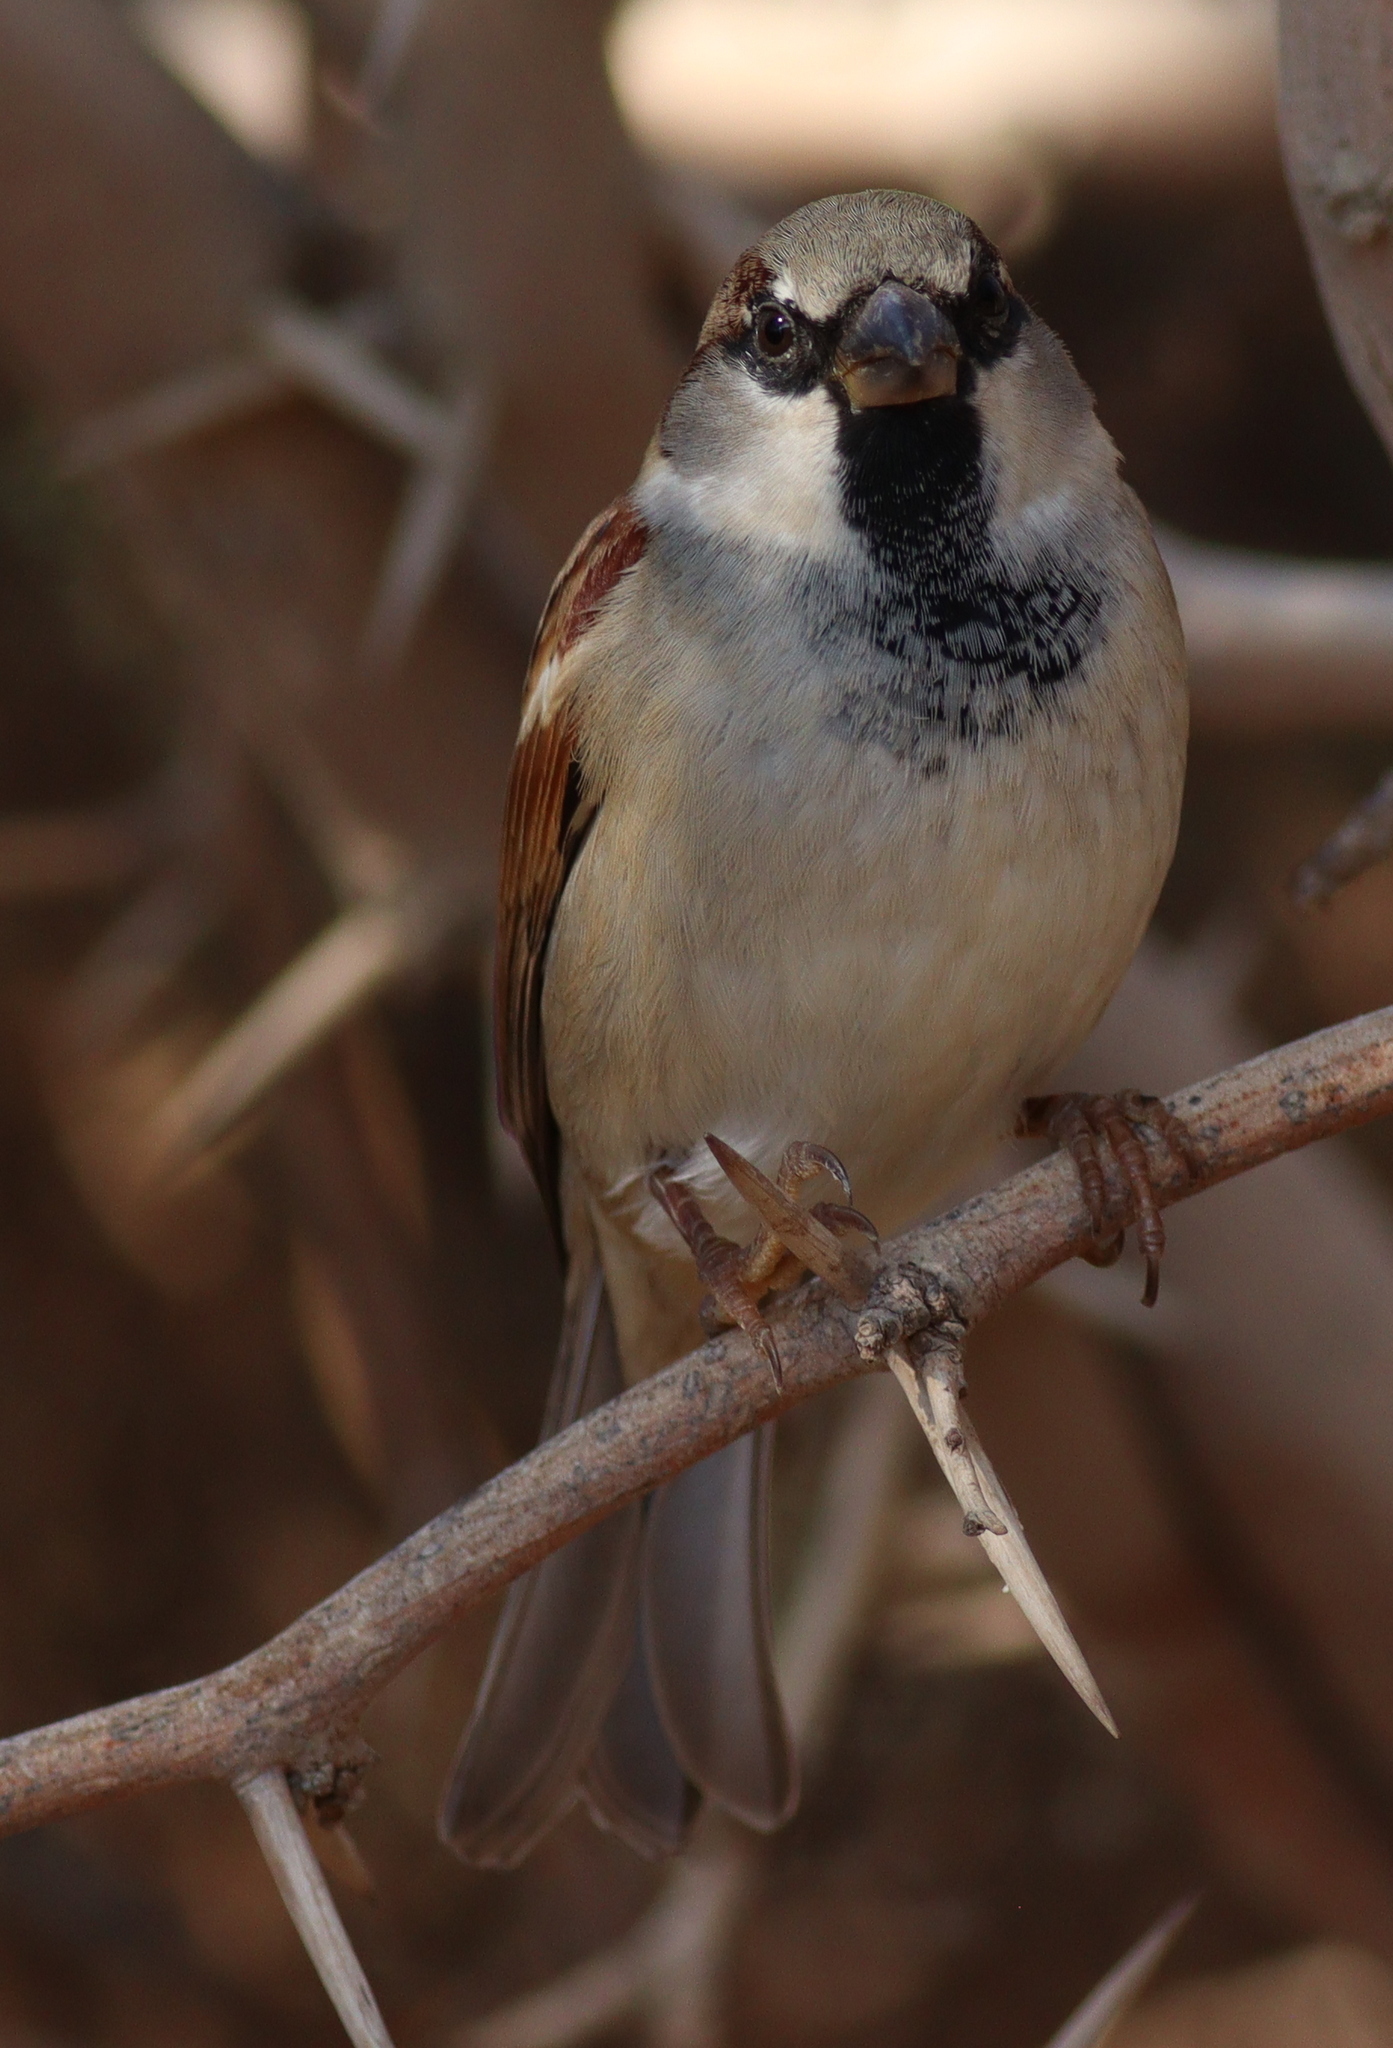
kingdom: Animalia
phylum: Chordata
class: Aves
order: Passeriformes
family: Passeridae
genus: Passer
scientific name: Passer domesticus
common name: House sparrow
